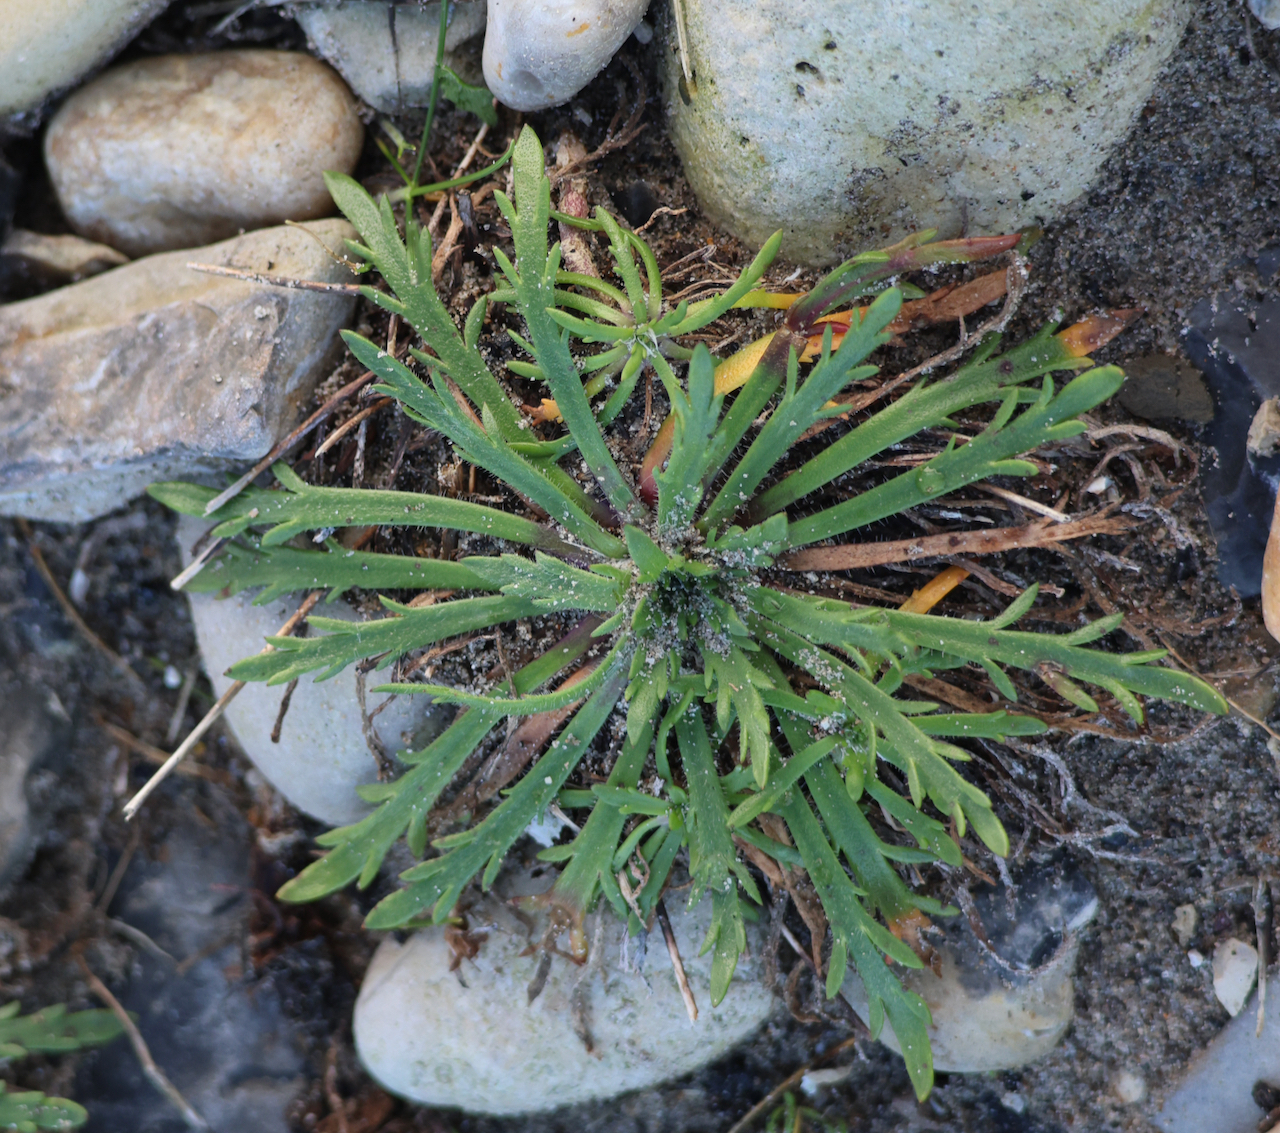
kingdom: Plantae
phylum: Tracheophyta
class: Magnoliopsida
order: Lamiales
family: Plantaginaceae
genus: Plantago
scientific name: Plantago coronopus
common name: Buck's-horn plantain
